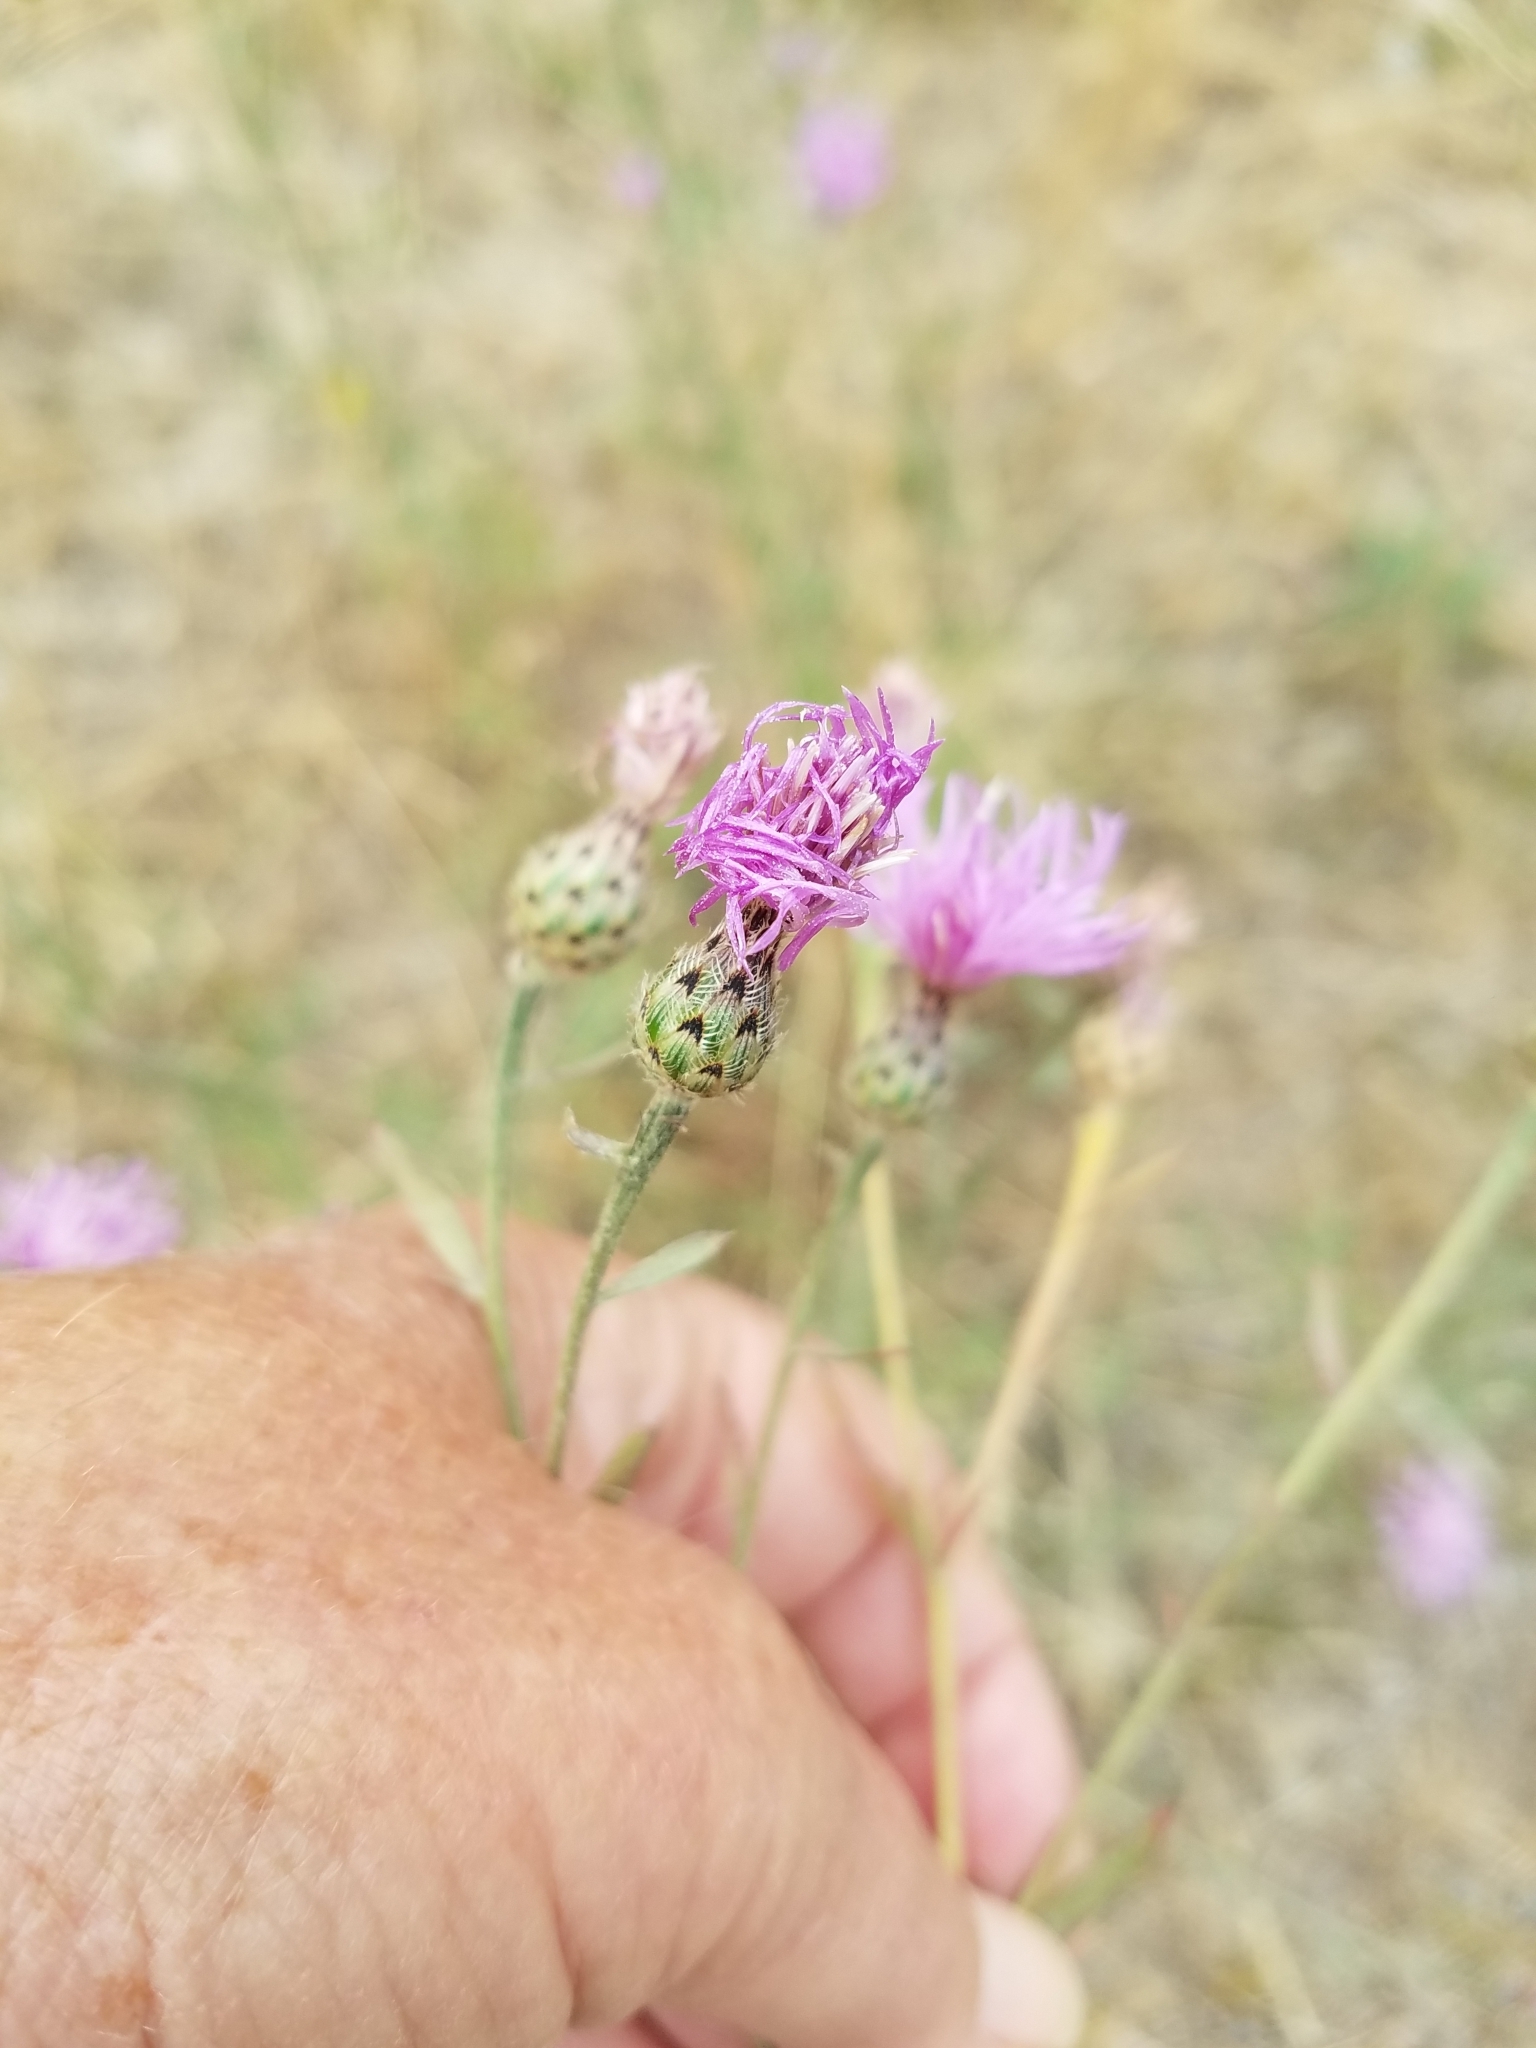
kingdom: Plantae
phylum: Tracheophyta
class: Magnoliopsida
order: Asterales
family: Asteraceae
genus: Centaurea
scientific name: Centaurea stoebe
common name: Spotted knapweed
